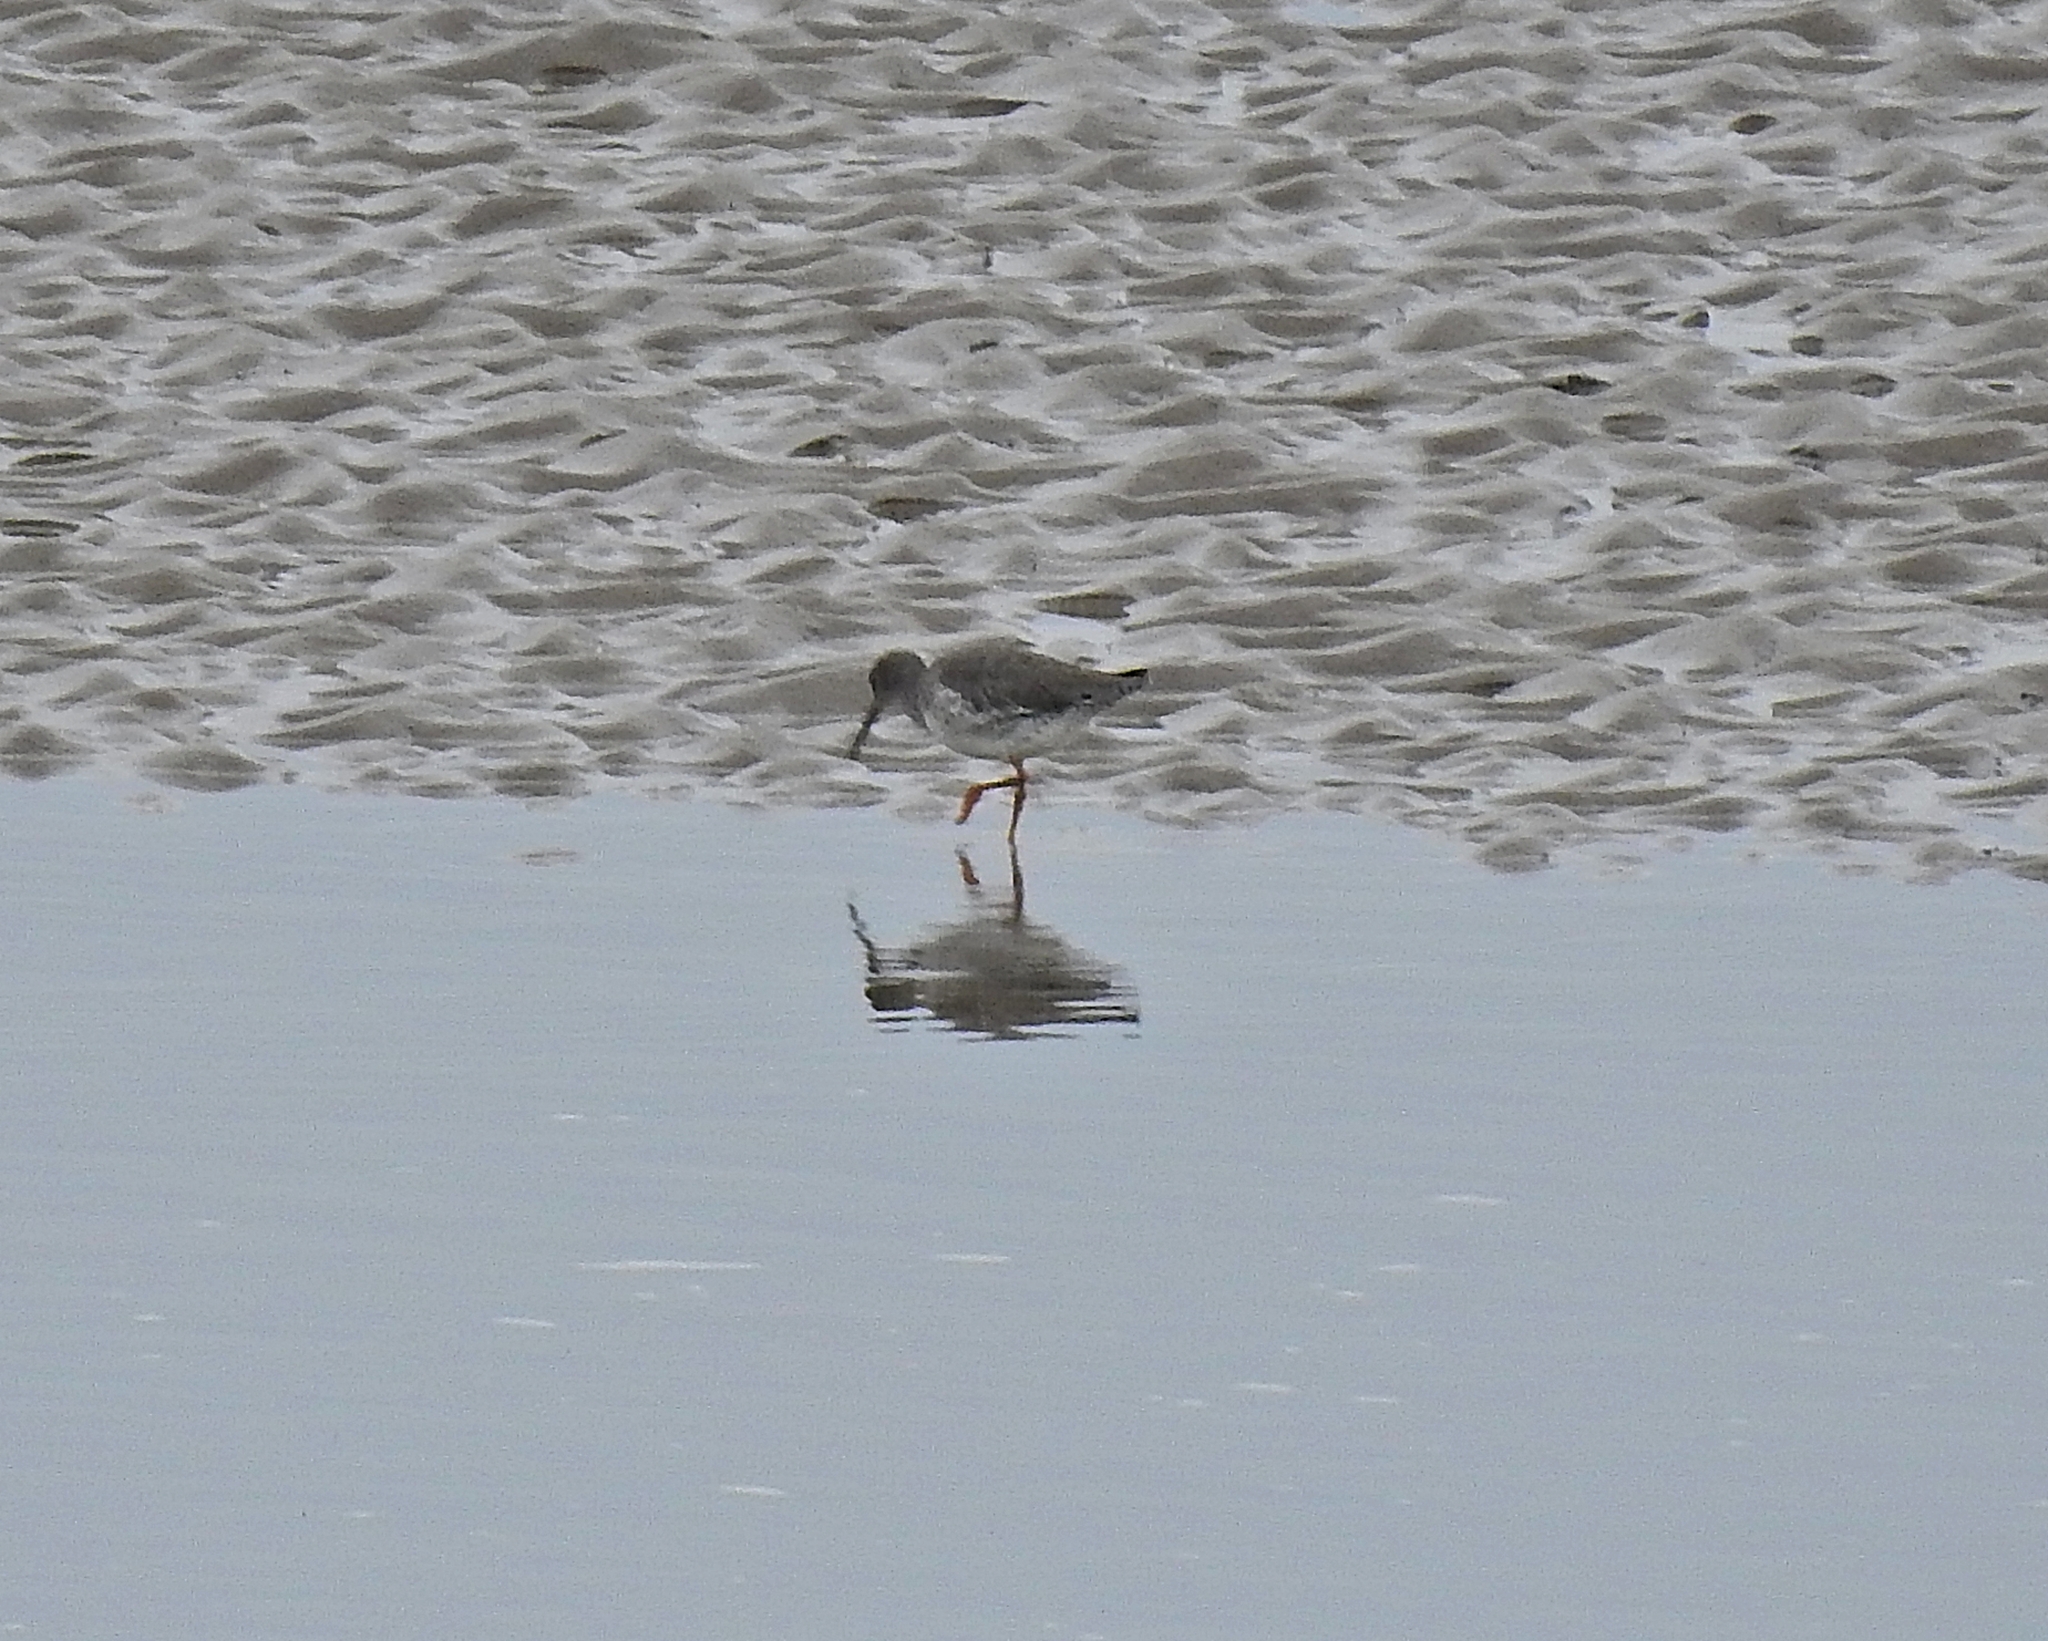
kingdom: Animalia
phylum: Chordata
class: Aves
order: Charadriiformes
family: Scolopacidae
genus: Tringa
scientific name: Tringa totanus
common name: Common redshank
